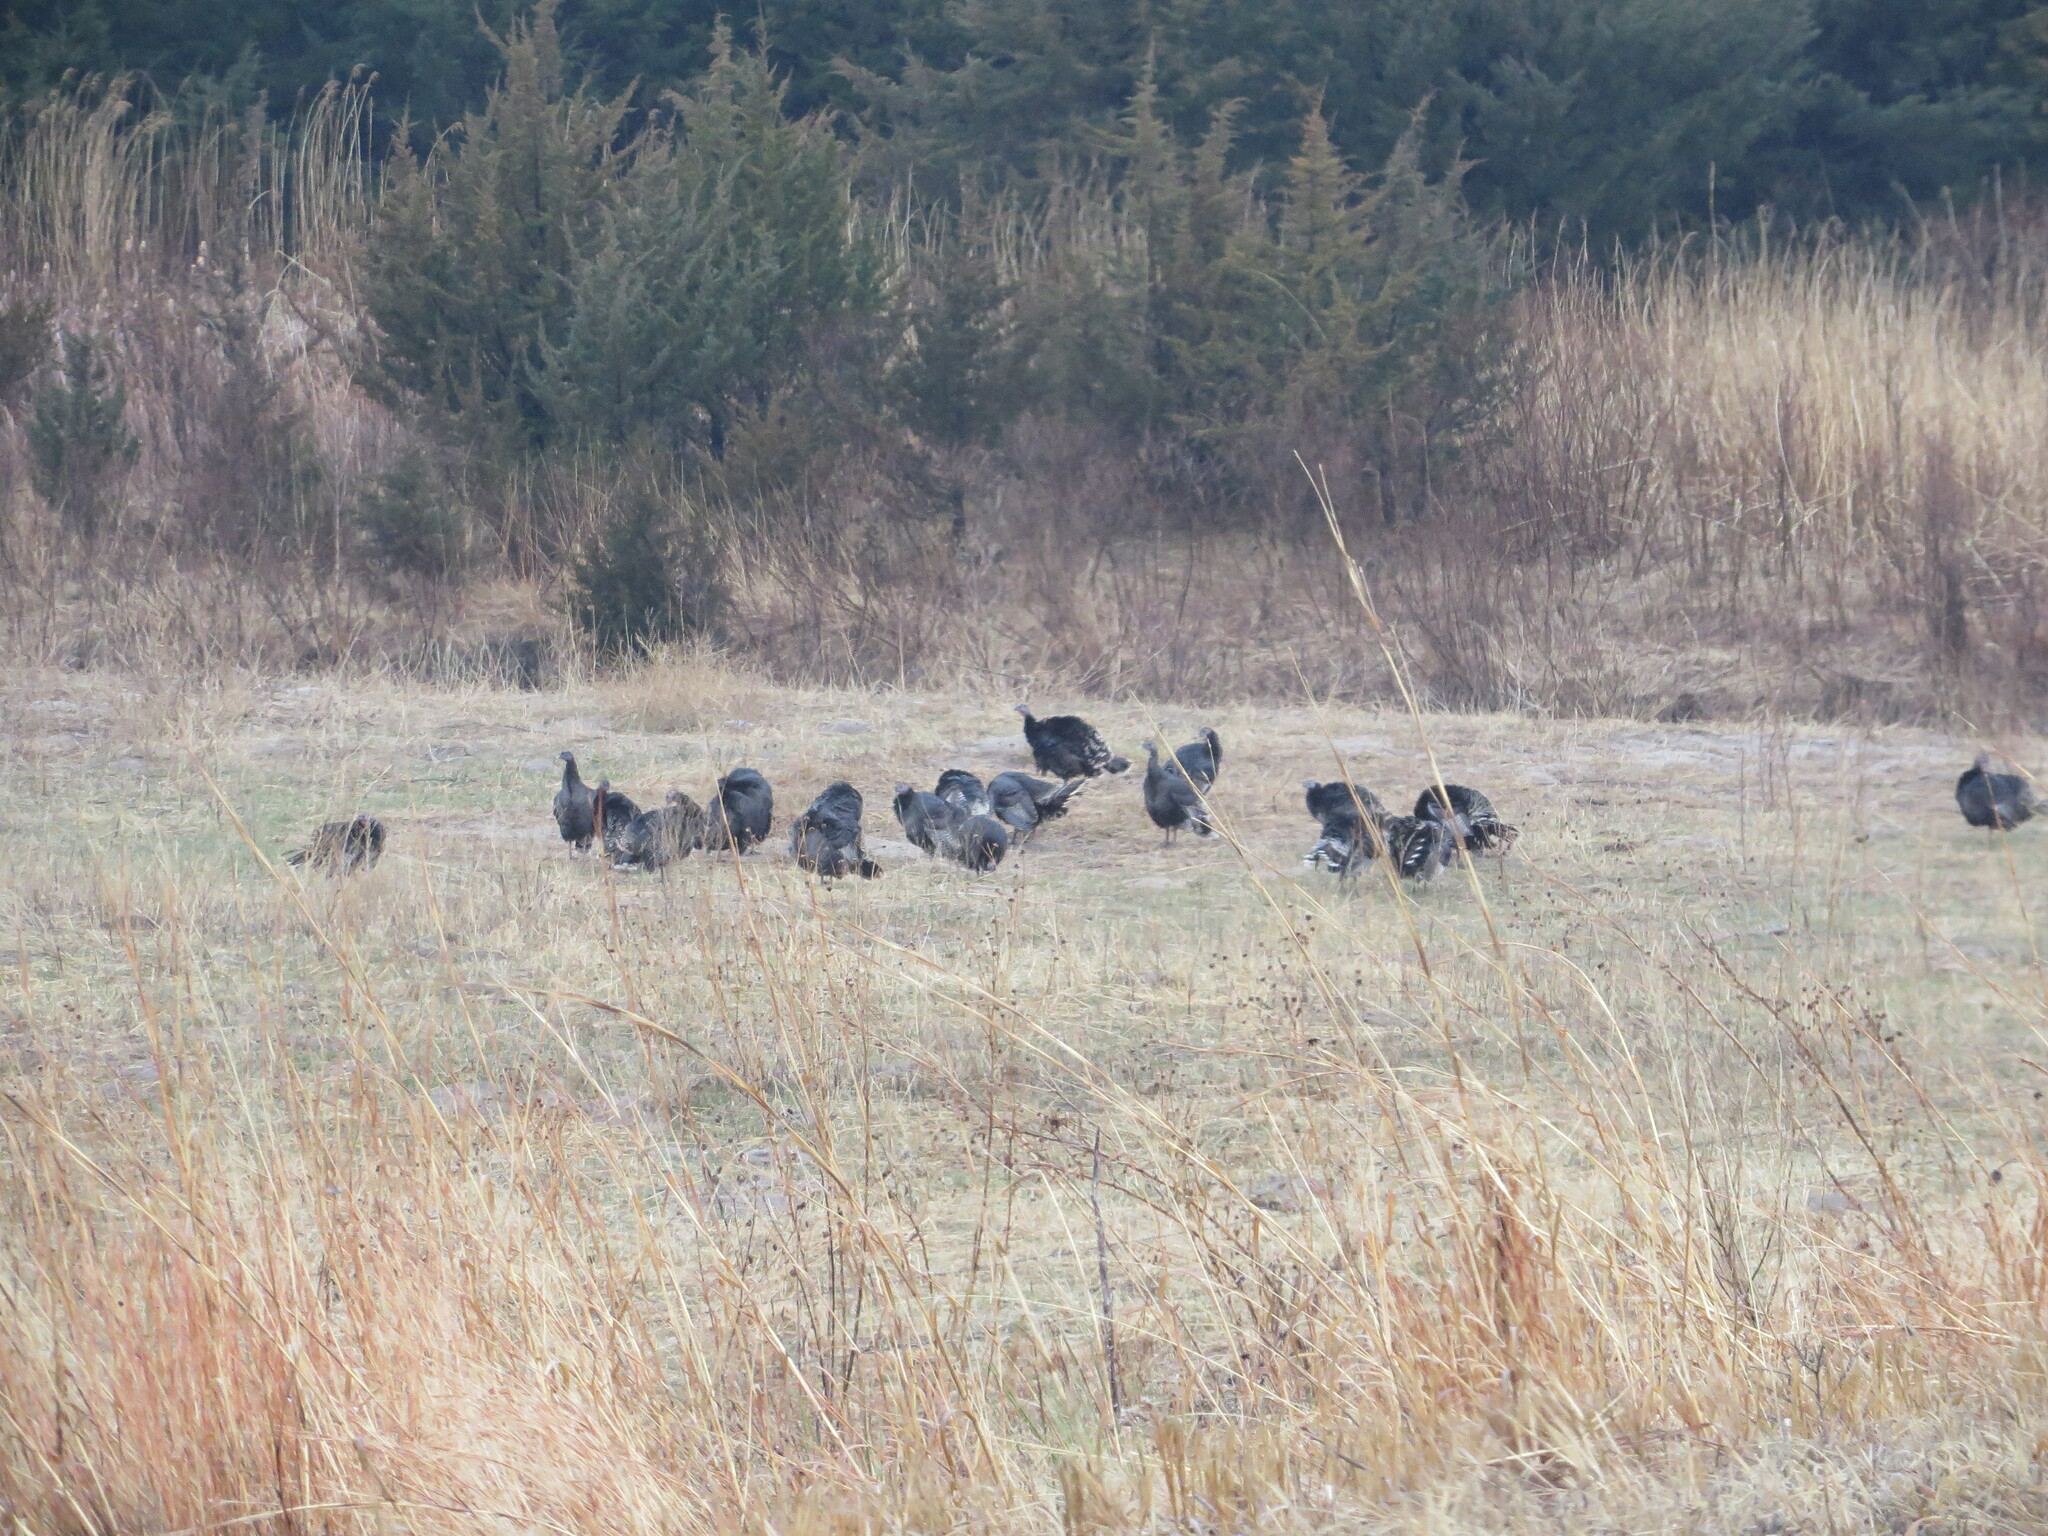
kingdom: Animalia
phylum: Chordata
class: Aves
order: Galliformes
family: Phasianidae
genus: Meleagris
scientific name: Meleagris gallopavo
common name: Wild turkey
